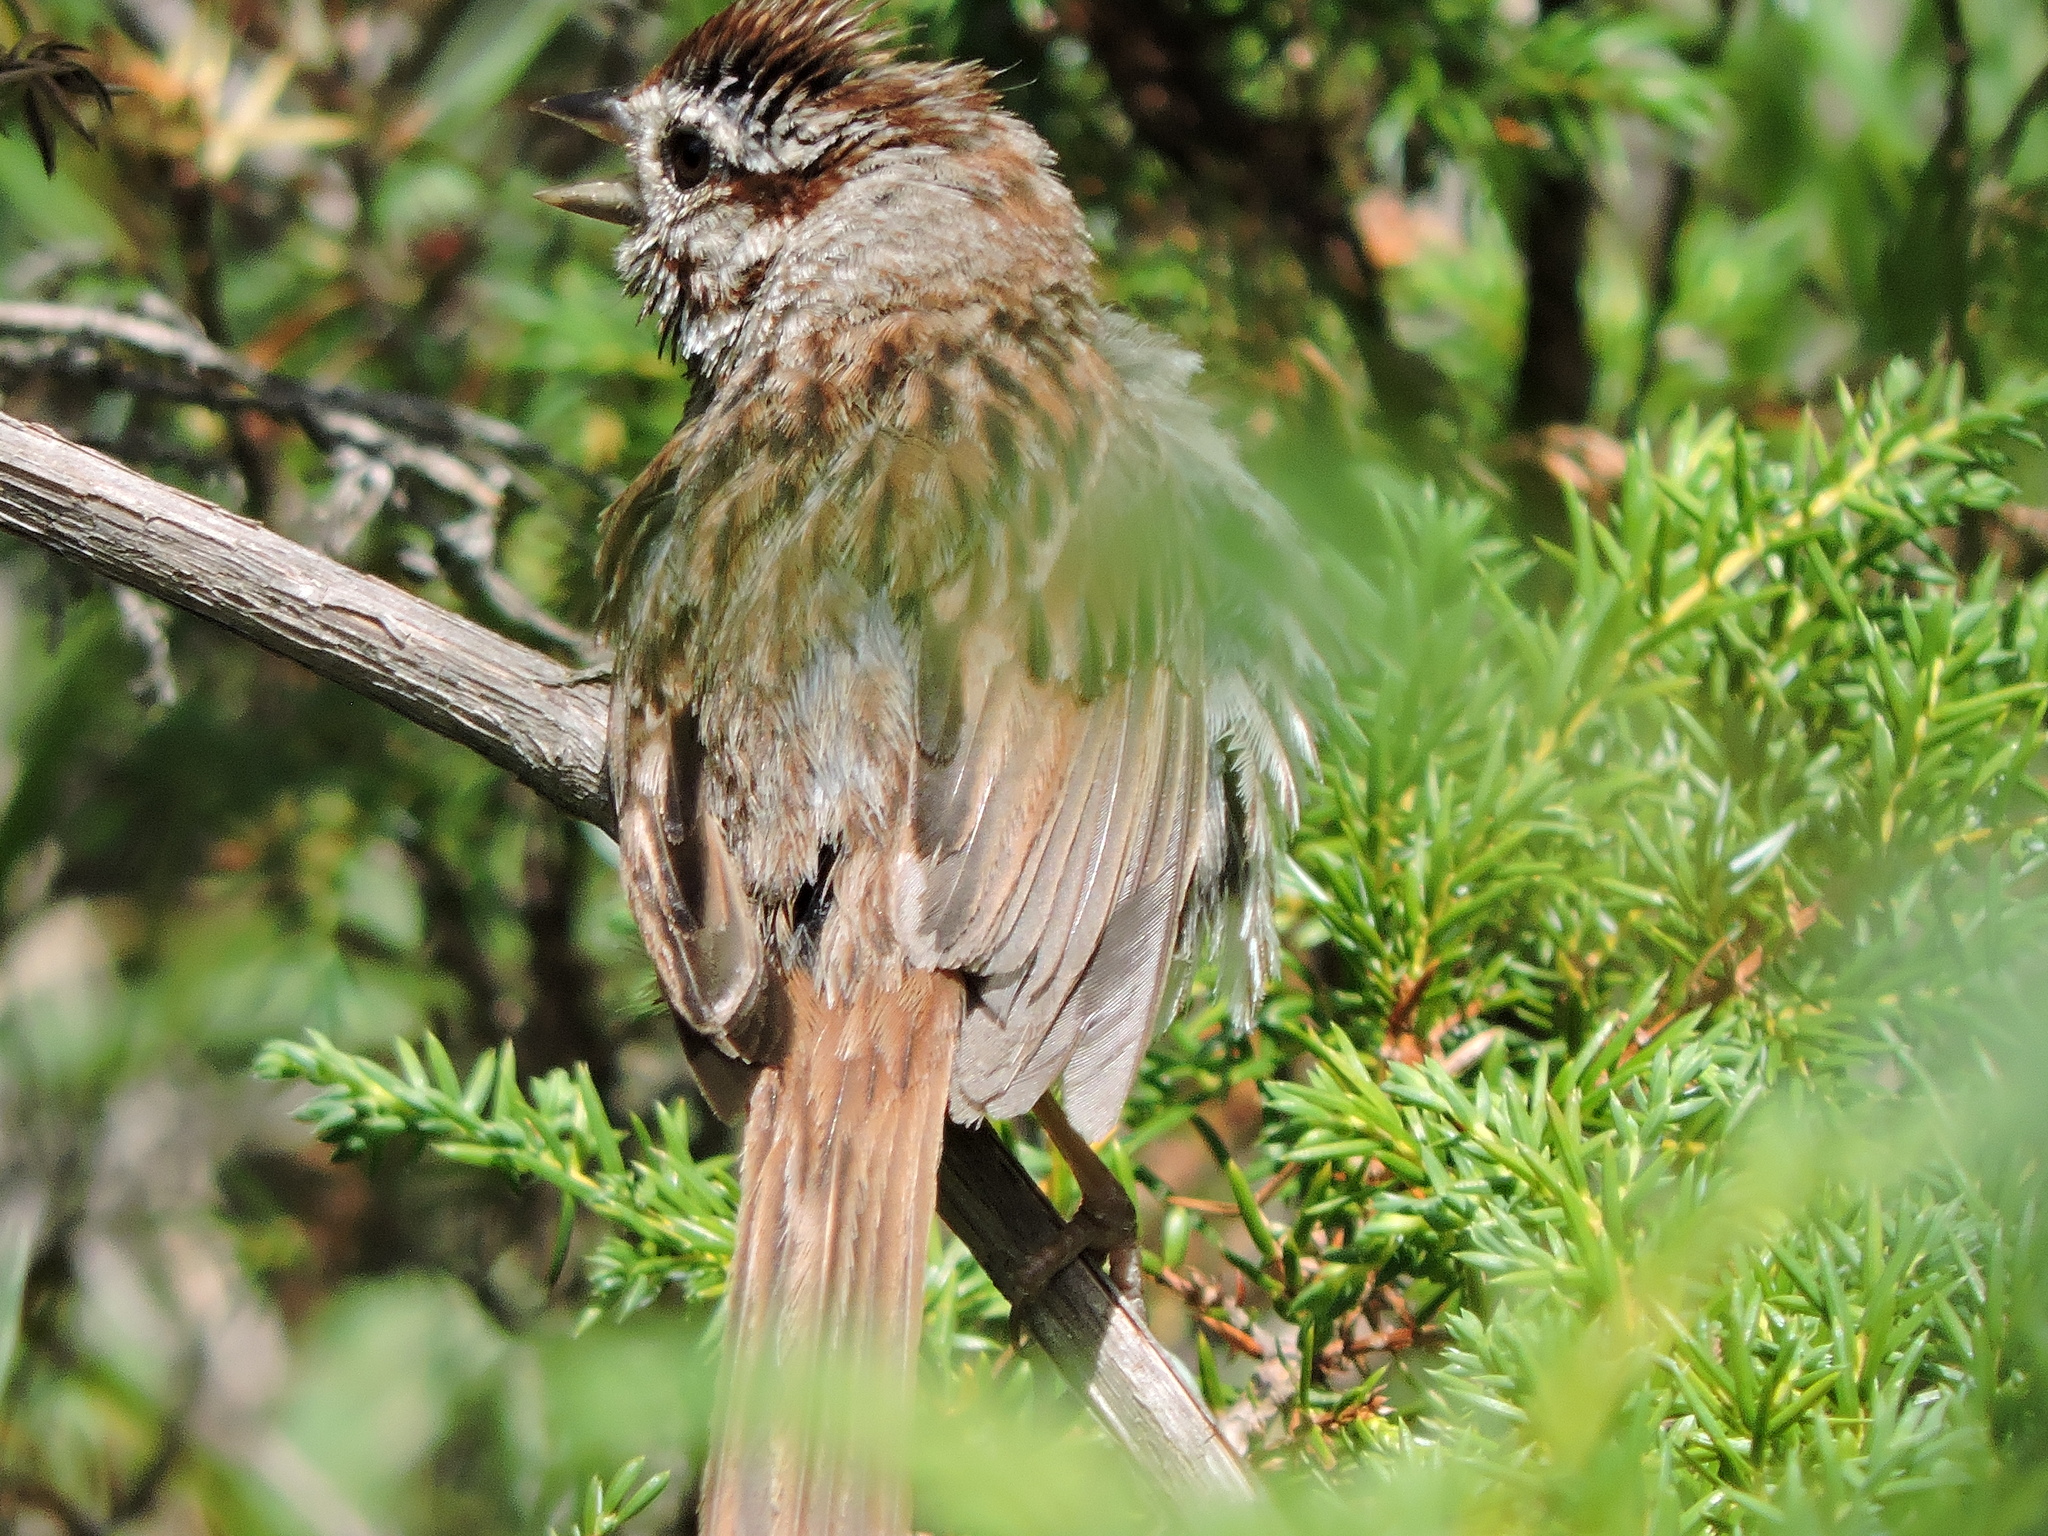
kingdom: Animalia
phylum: Chordata
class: Aves
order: Passeriformes
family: Passerellidae
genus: Melospiza
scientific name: Melospiza melodia
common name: Song sparrow
